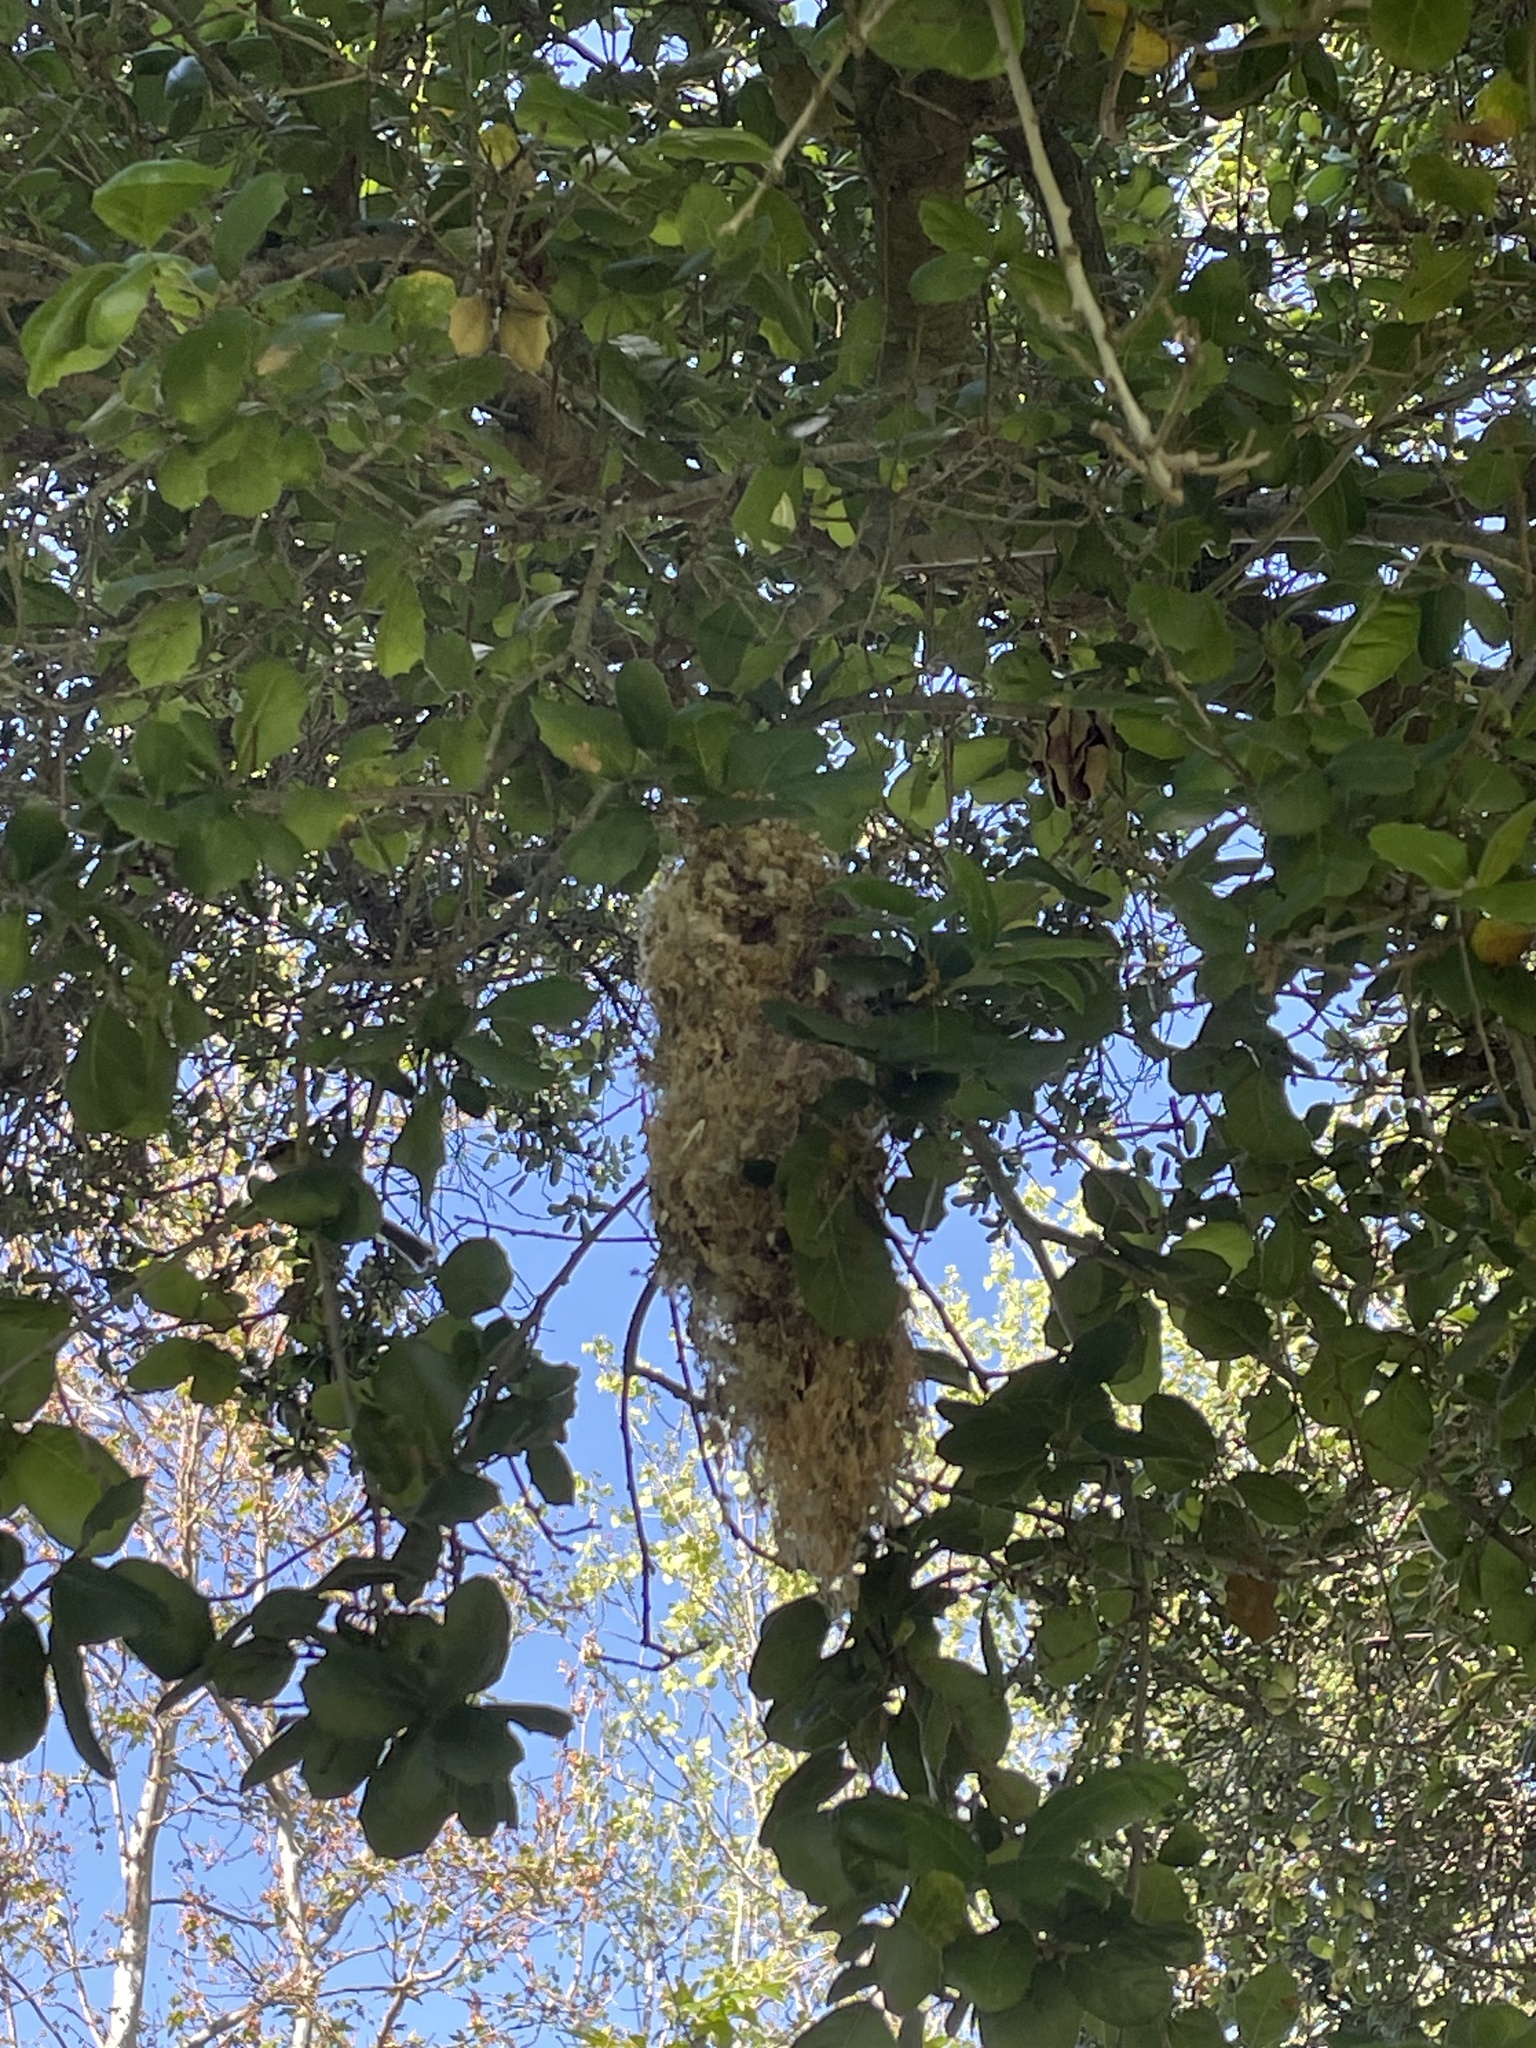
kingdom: Animalia
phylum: Chordata
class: Aves
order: Passeriformes
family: Aegithalidae
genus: Psaltriparus
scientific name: Psaltriparus minimus
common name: American bushtit
